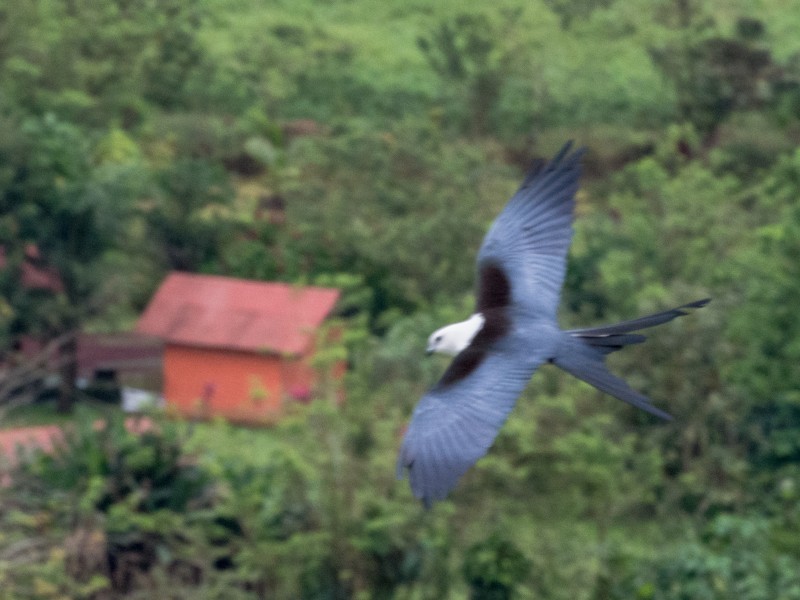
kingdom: Animalia
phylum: Chordata
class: Aves
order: Accipitriformes
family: Accipitridae
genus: Elanoides
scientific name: Elanoides forficatus
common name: Swallow-tailed kite
